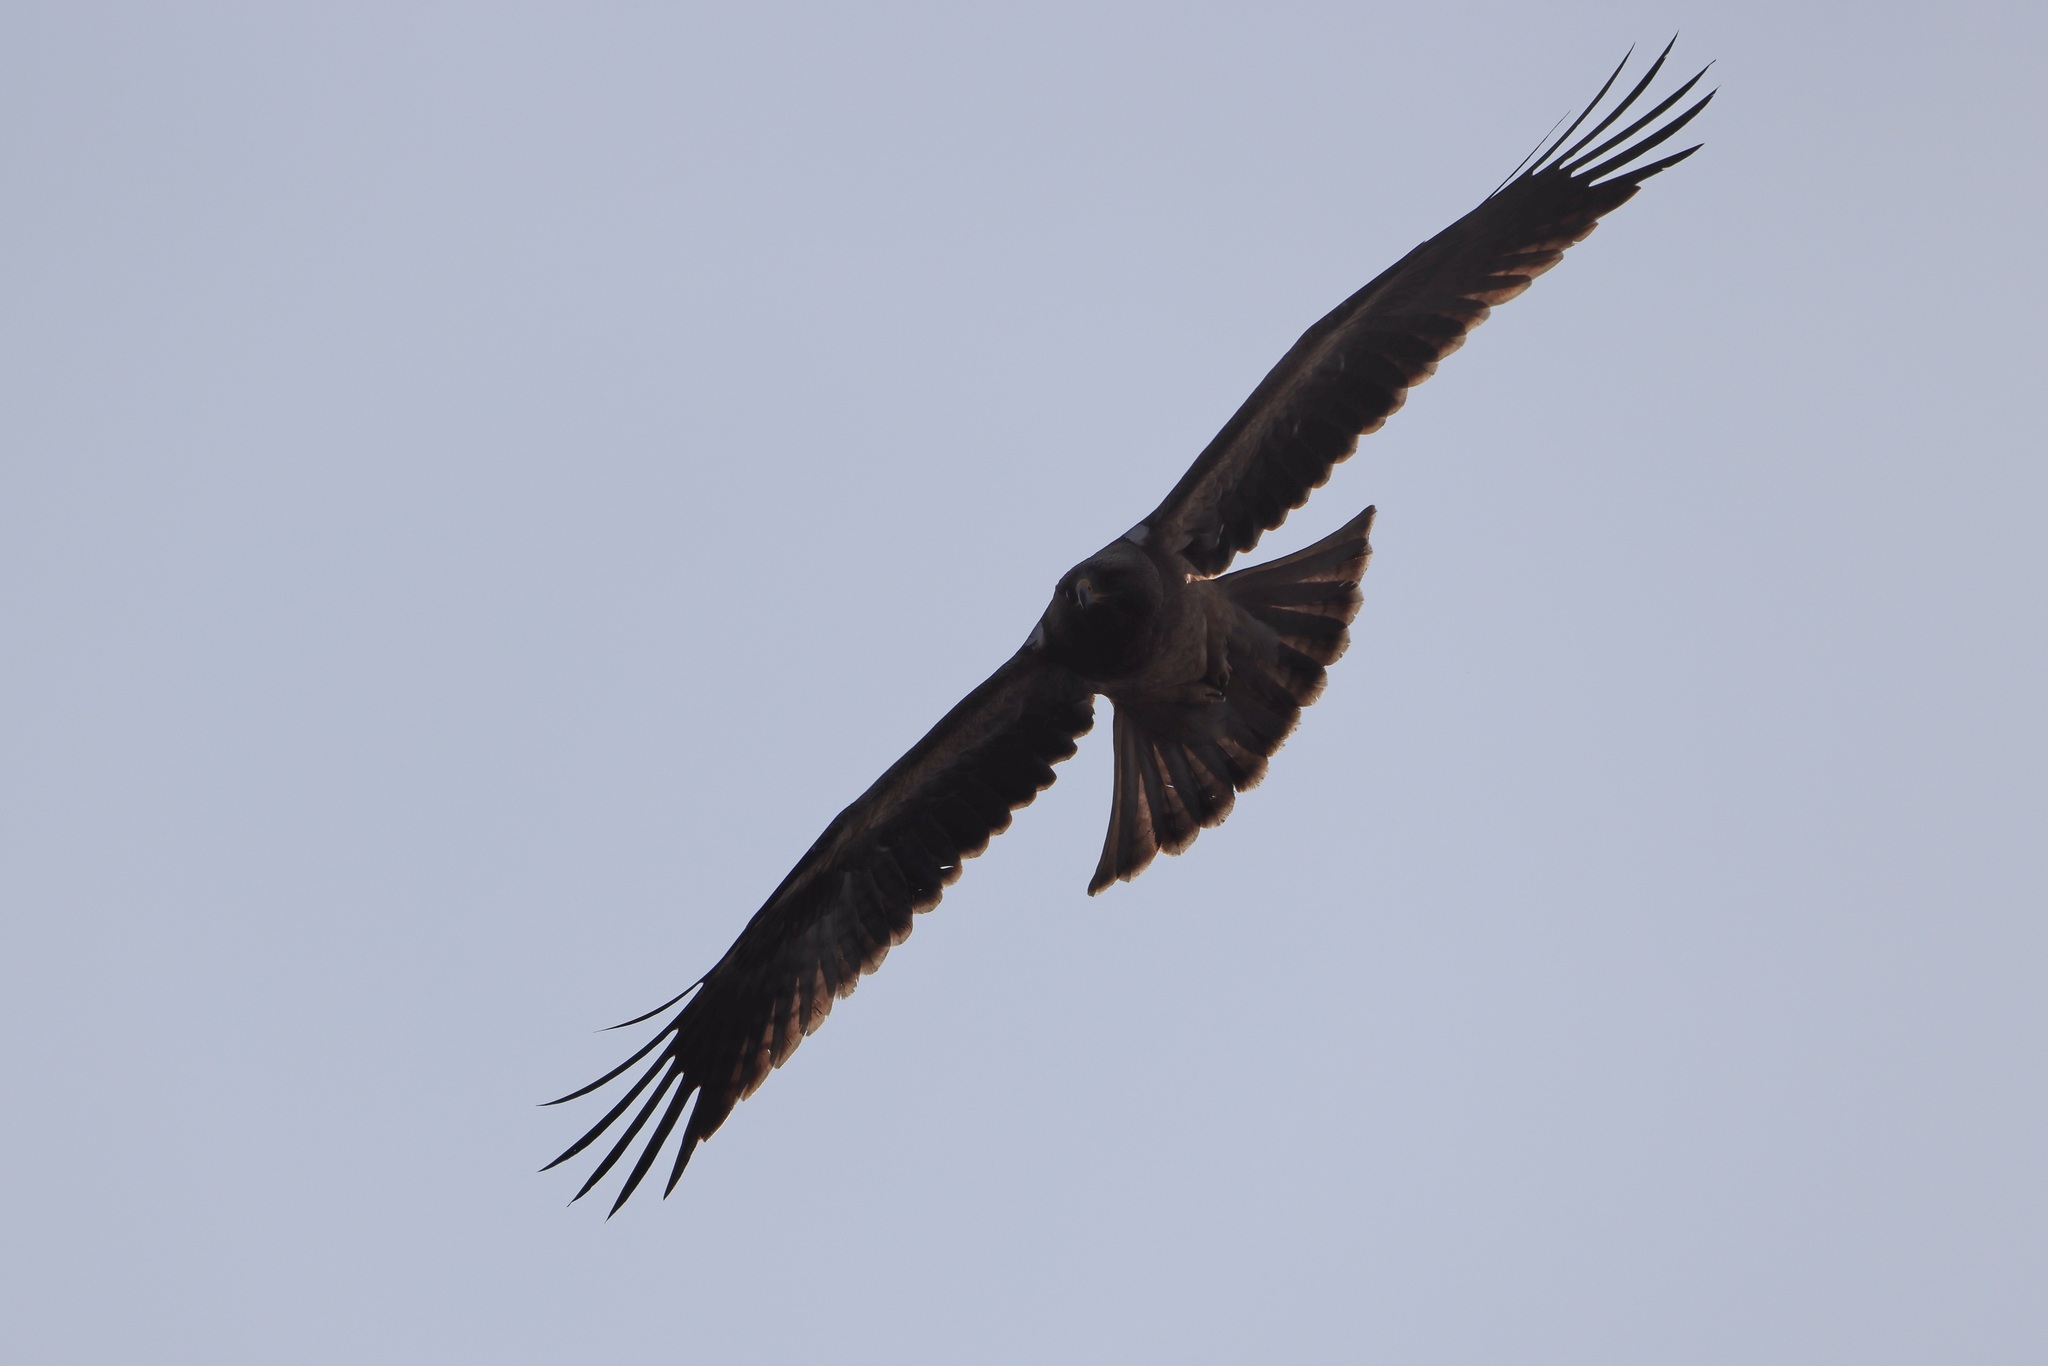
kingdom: Animalia
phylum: Chordata
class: Aves
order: Accipitriformes
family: Accipitridae
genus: Hieraaetus
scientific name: Hieraaetus pennatus
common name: Booted eagle
